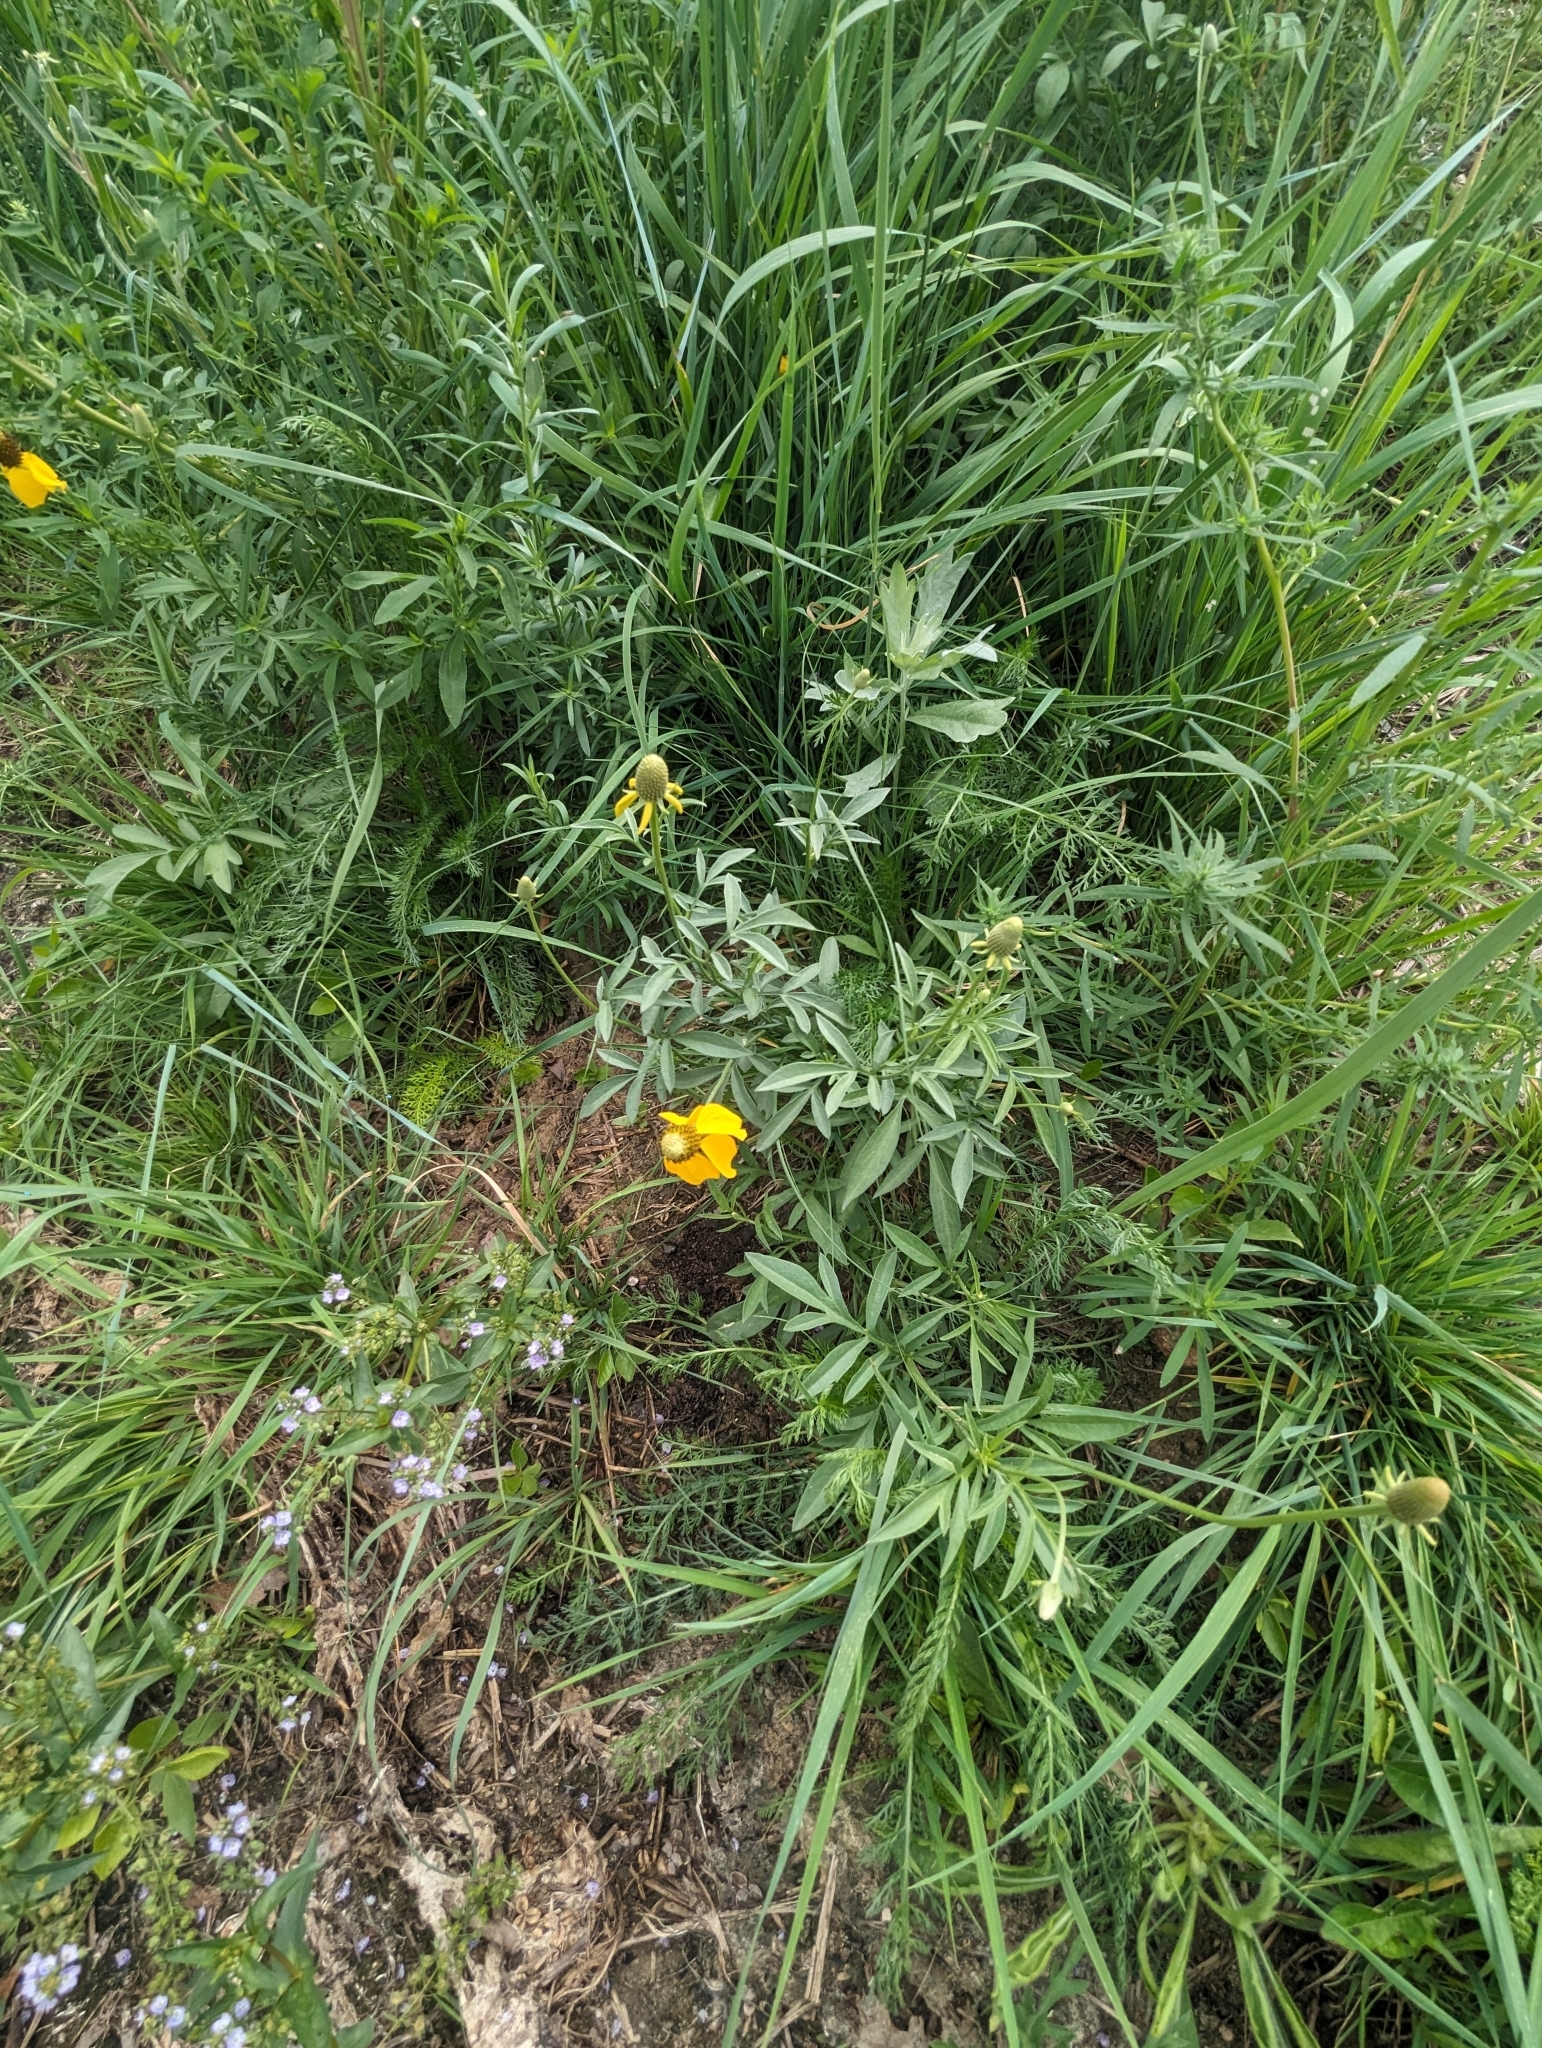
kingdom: Plantae
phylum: Tracheophyta
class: Magnoliopsida
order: Asterales
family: Asteraceae
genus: Ratibida
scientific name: Ratibida columnifera
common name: Prairie coneflower
